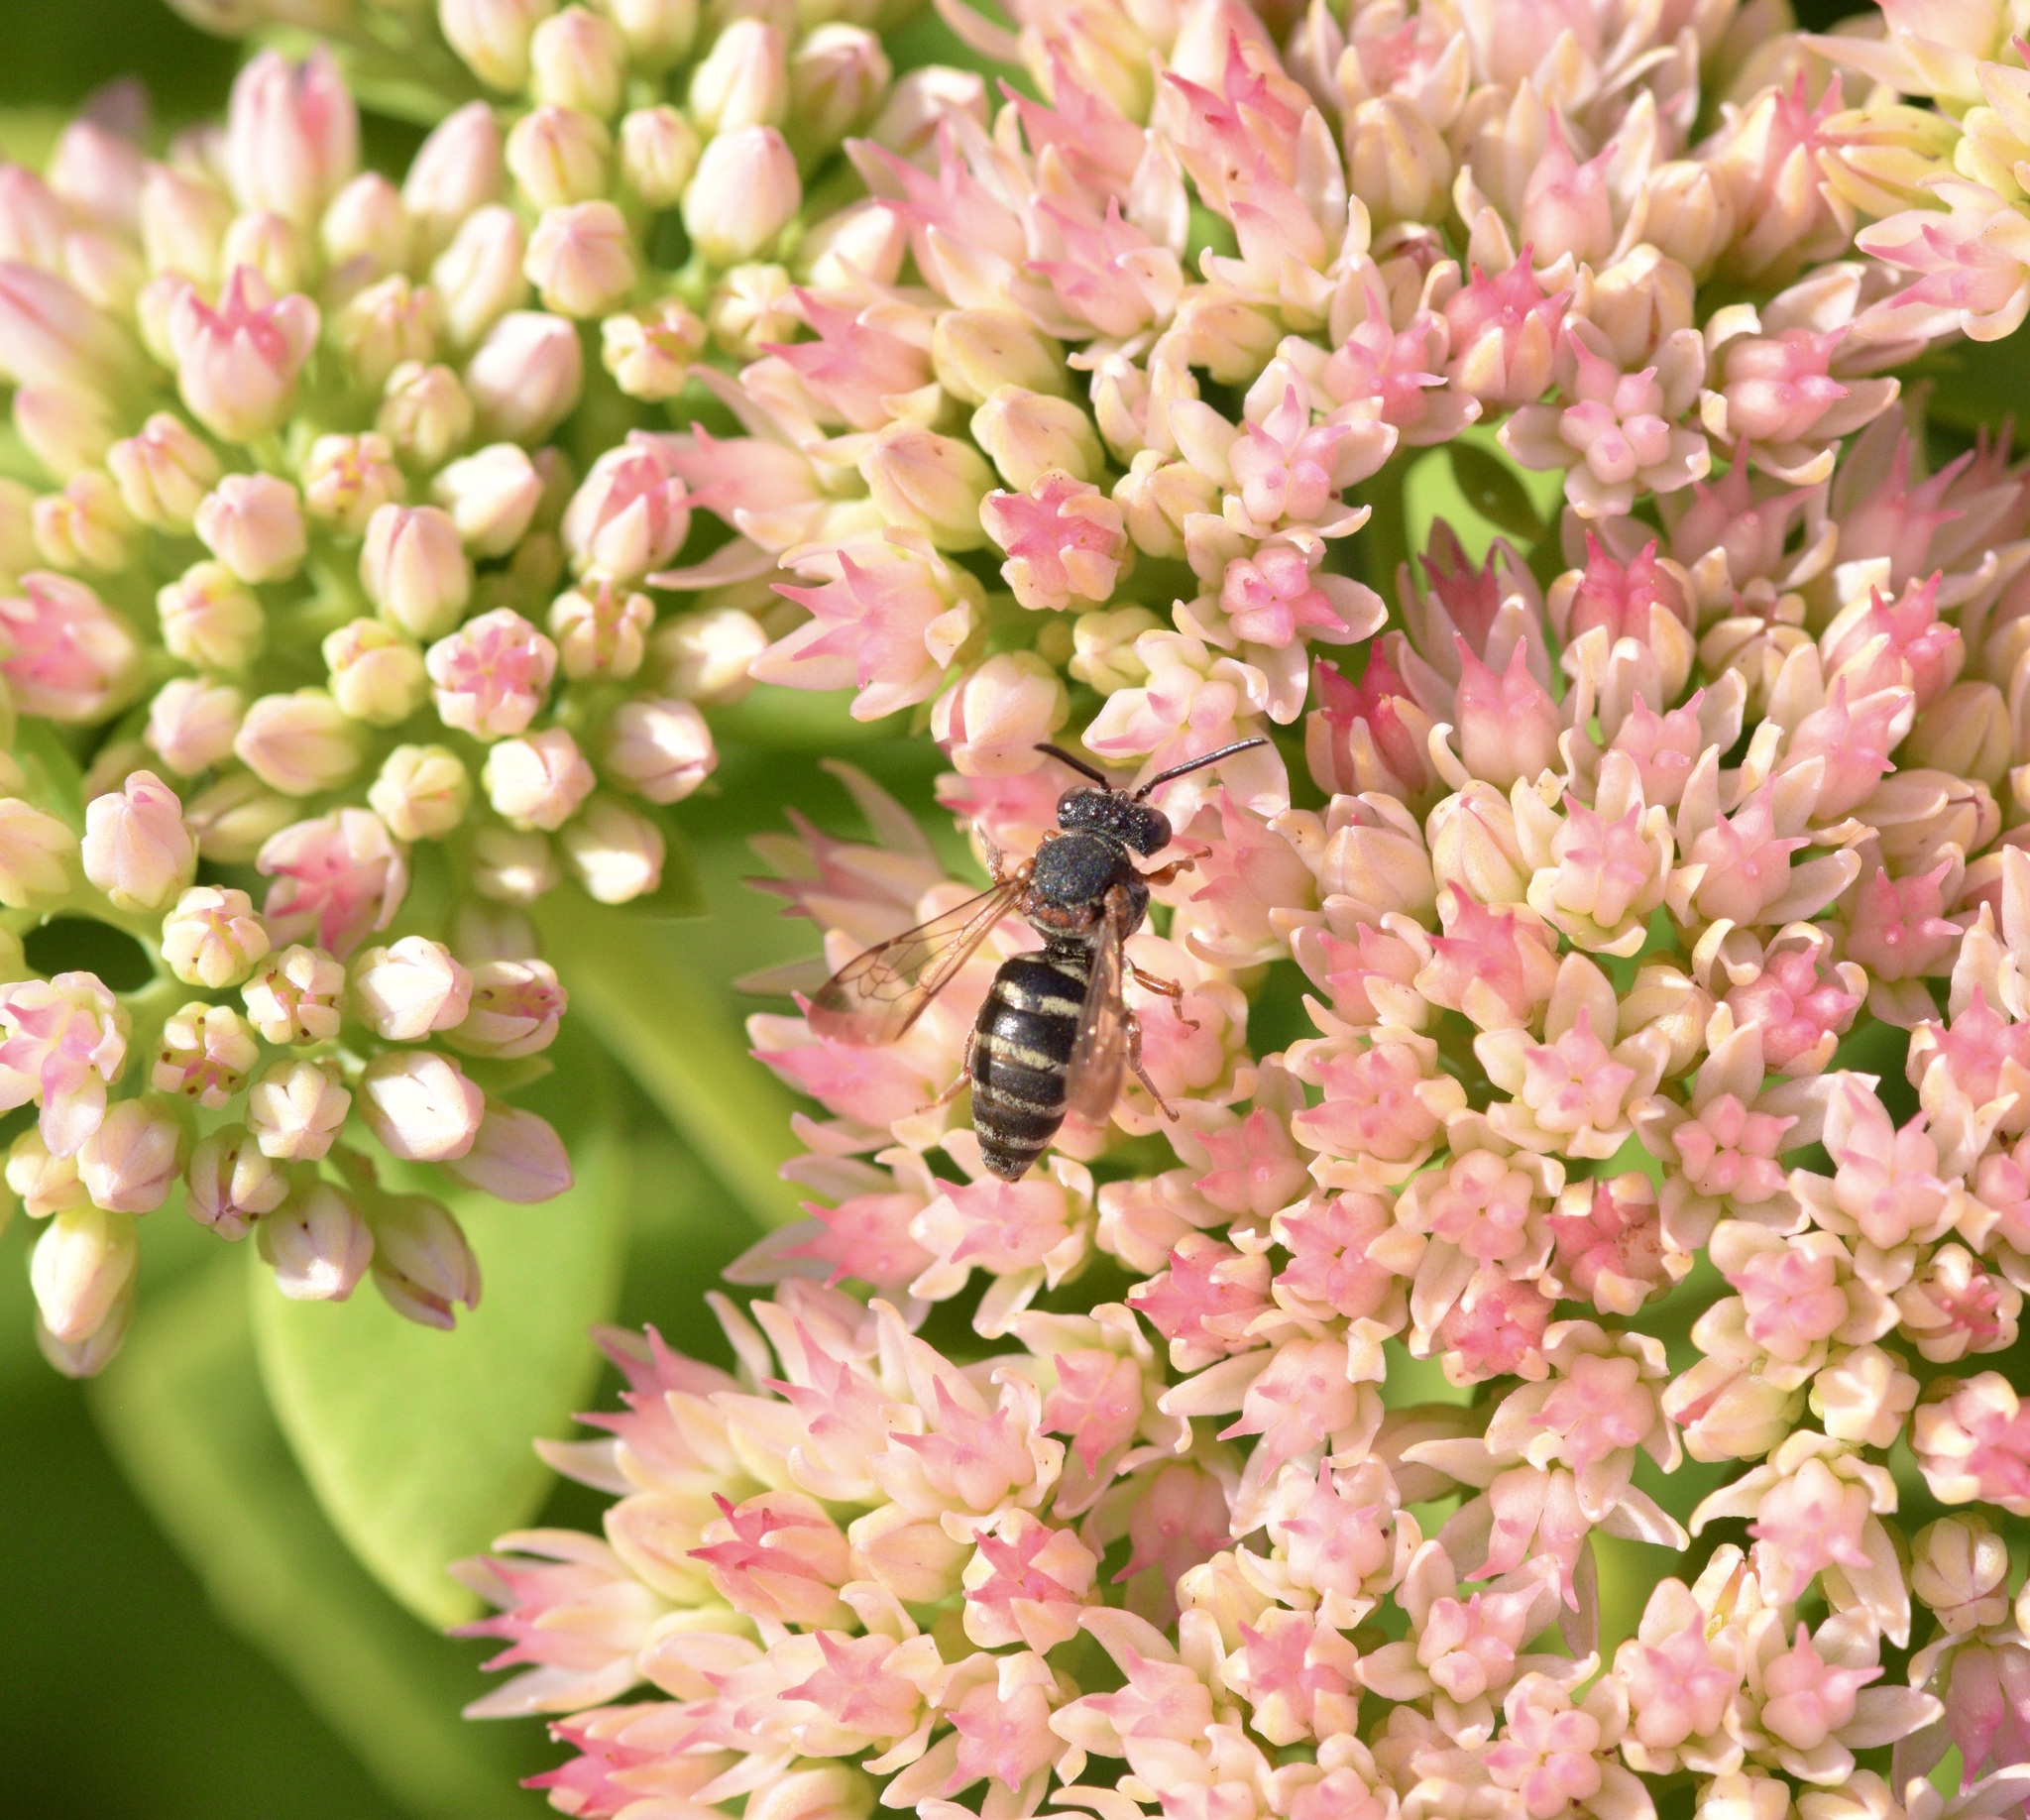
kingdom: Animalia
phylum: Arthropoda
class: Insecta
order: Hymenoptera
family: Apidae
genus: Epeolus
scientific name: Epeolus scutellaris
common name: Notch-backed cellophane-cuckoo bee
